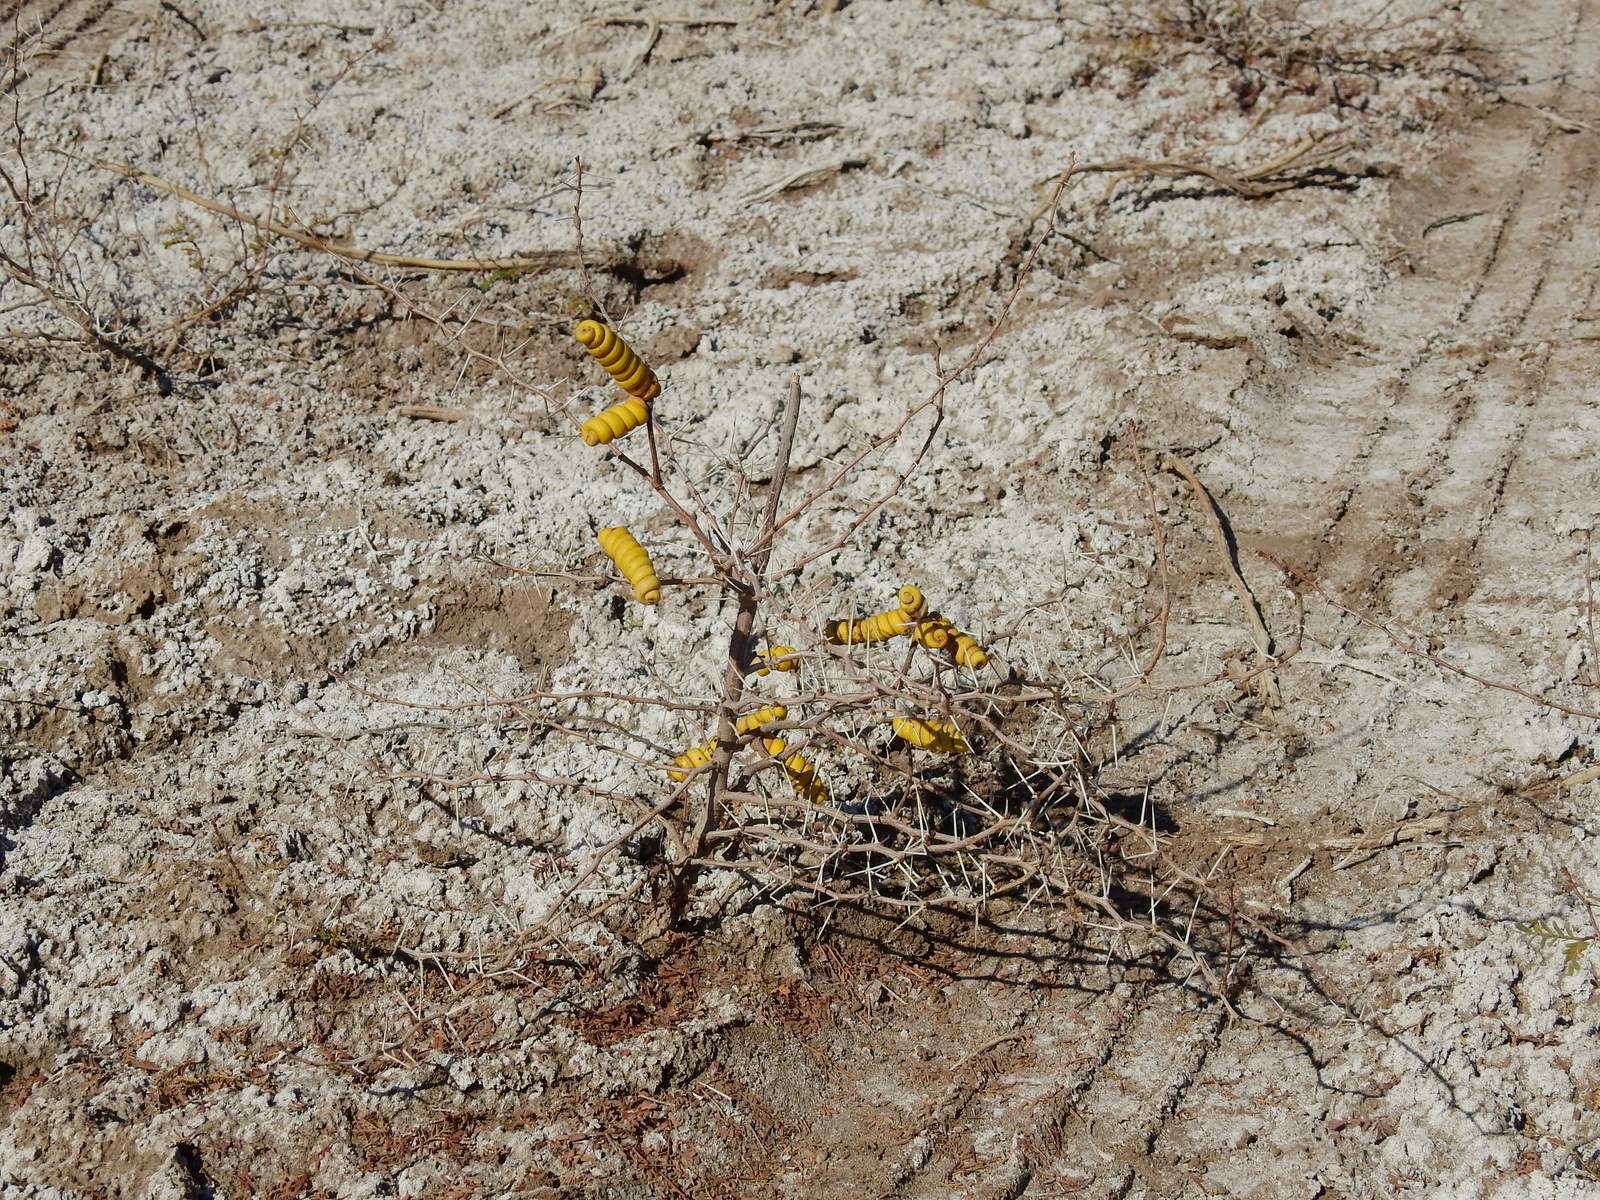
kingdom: Plantae
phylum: Tracheophyta
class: Magnoliopsida
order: Fabales
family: Fabaceae
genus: Prosopis
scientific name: Prosopis strombulifera
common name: Creeping mesquite
